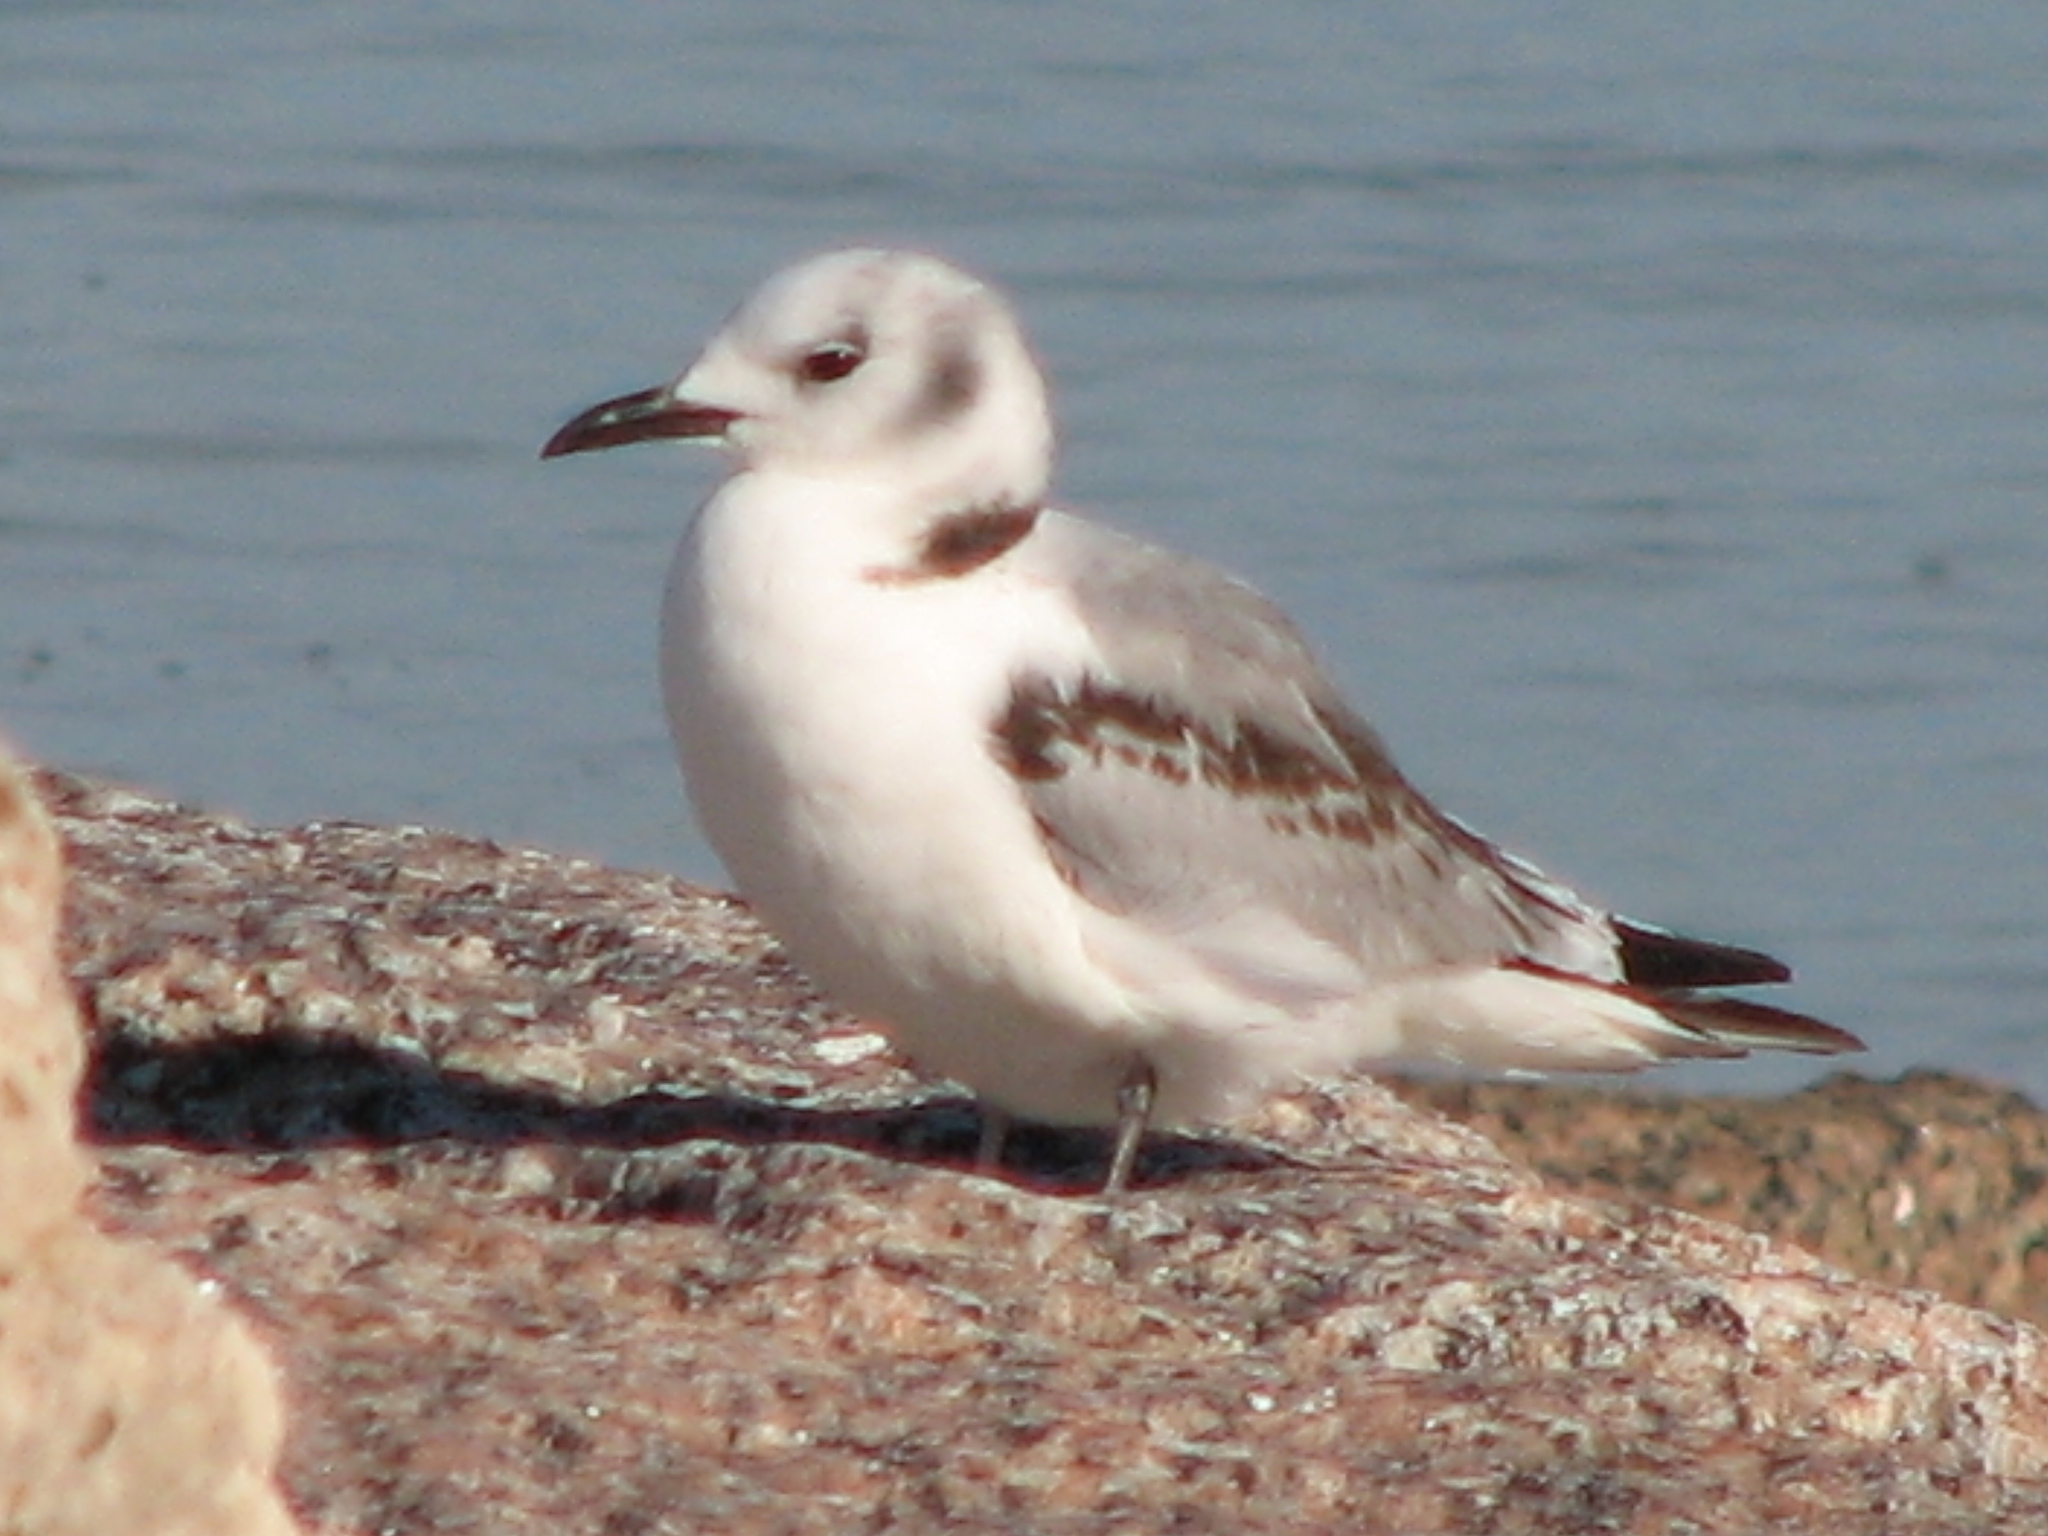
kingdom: Animalia
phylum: Chordata
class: Aves
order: Charadriiformes
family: Laridae
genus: Rissa
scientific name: Rissa tridactyla
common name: Black-legged kittiwake
